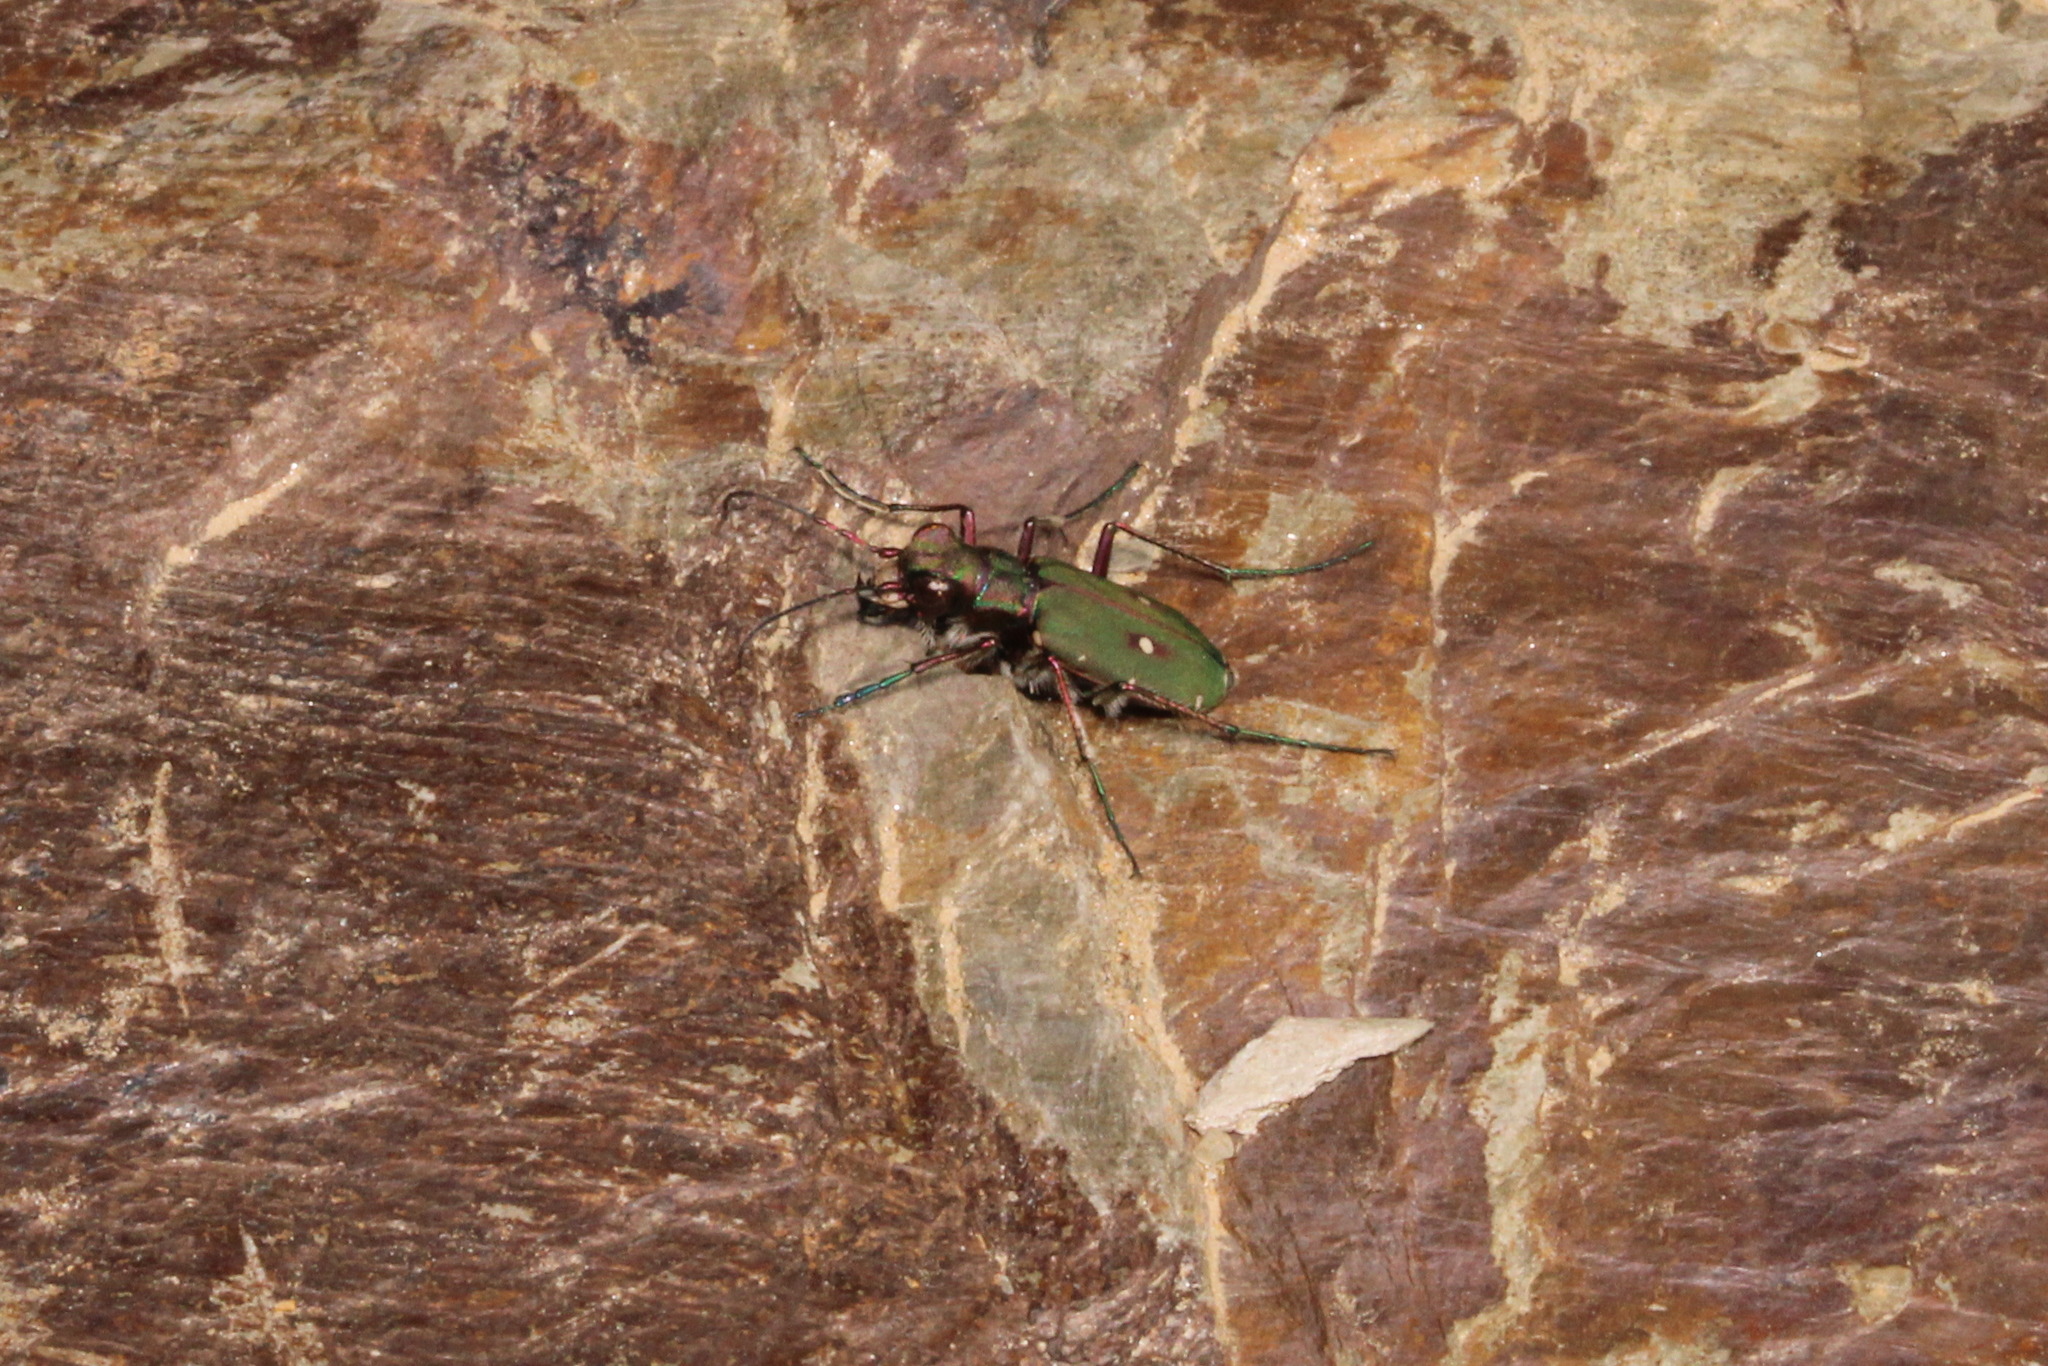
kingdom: Animalia
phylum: Arthropoda
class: Insecta
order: Coleoptera
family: Carabidae
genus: Cicindela
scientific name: Cicindela campestris
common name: Common tiger beetle
